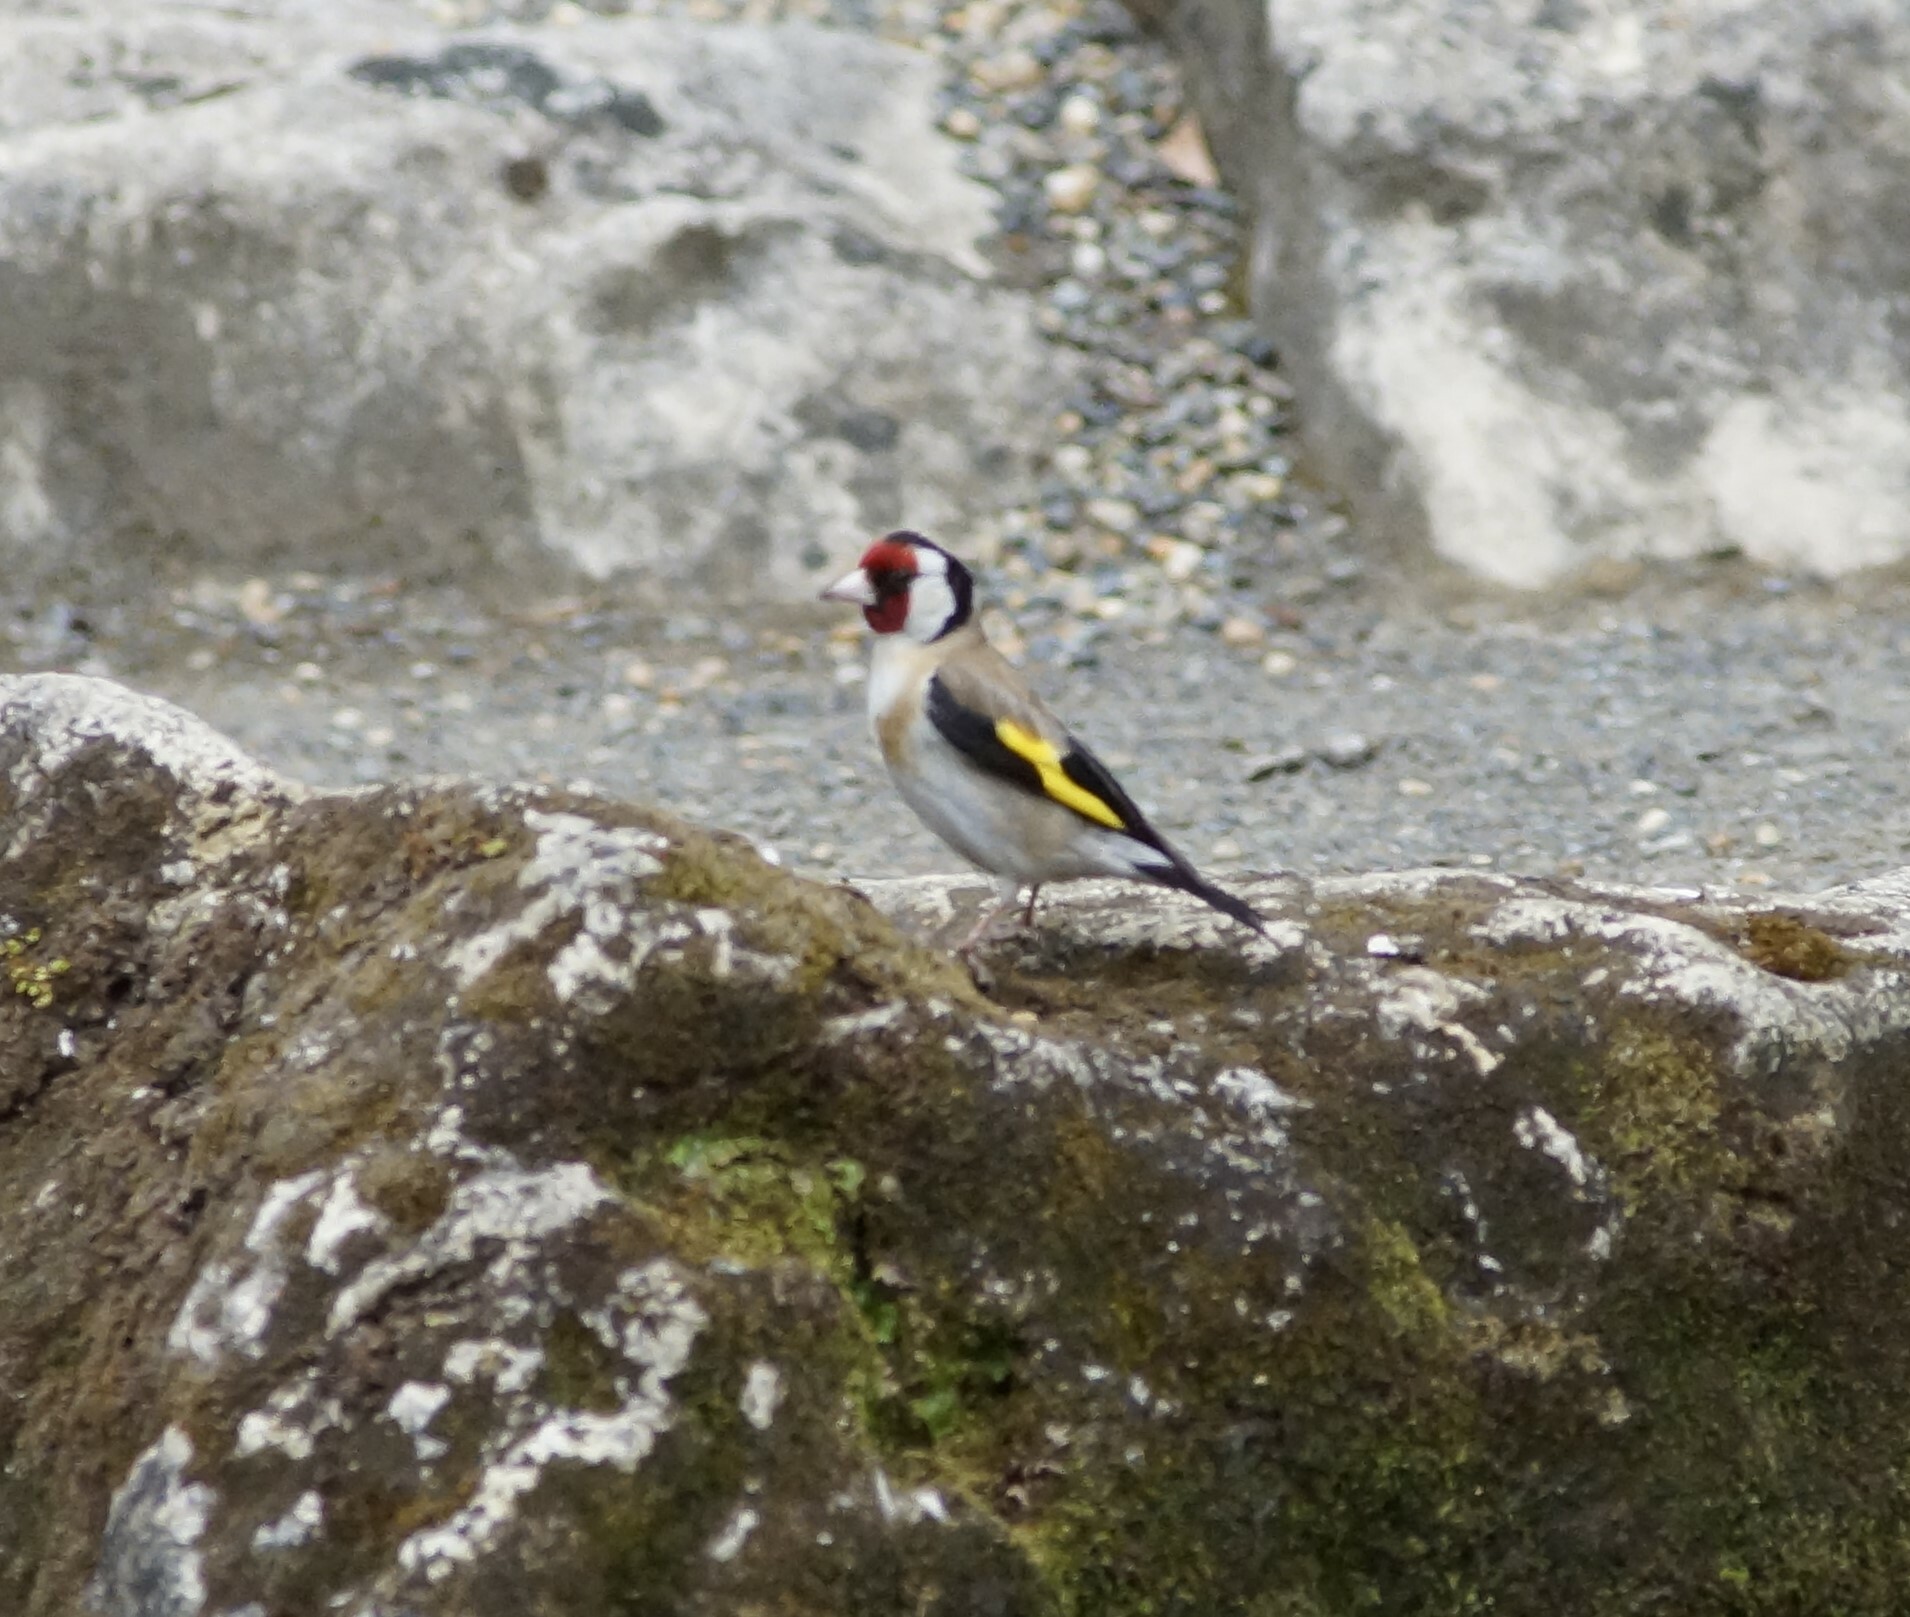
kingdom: Animalia
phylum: Chordata
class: Aves
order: Passeriformes
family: Fringillidae
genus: Carduelis
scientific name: Carduelis carduelis
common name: European goldfinch
